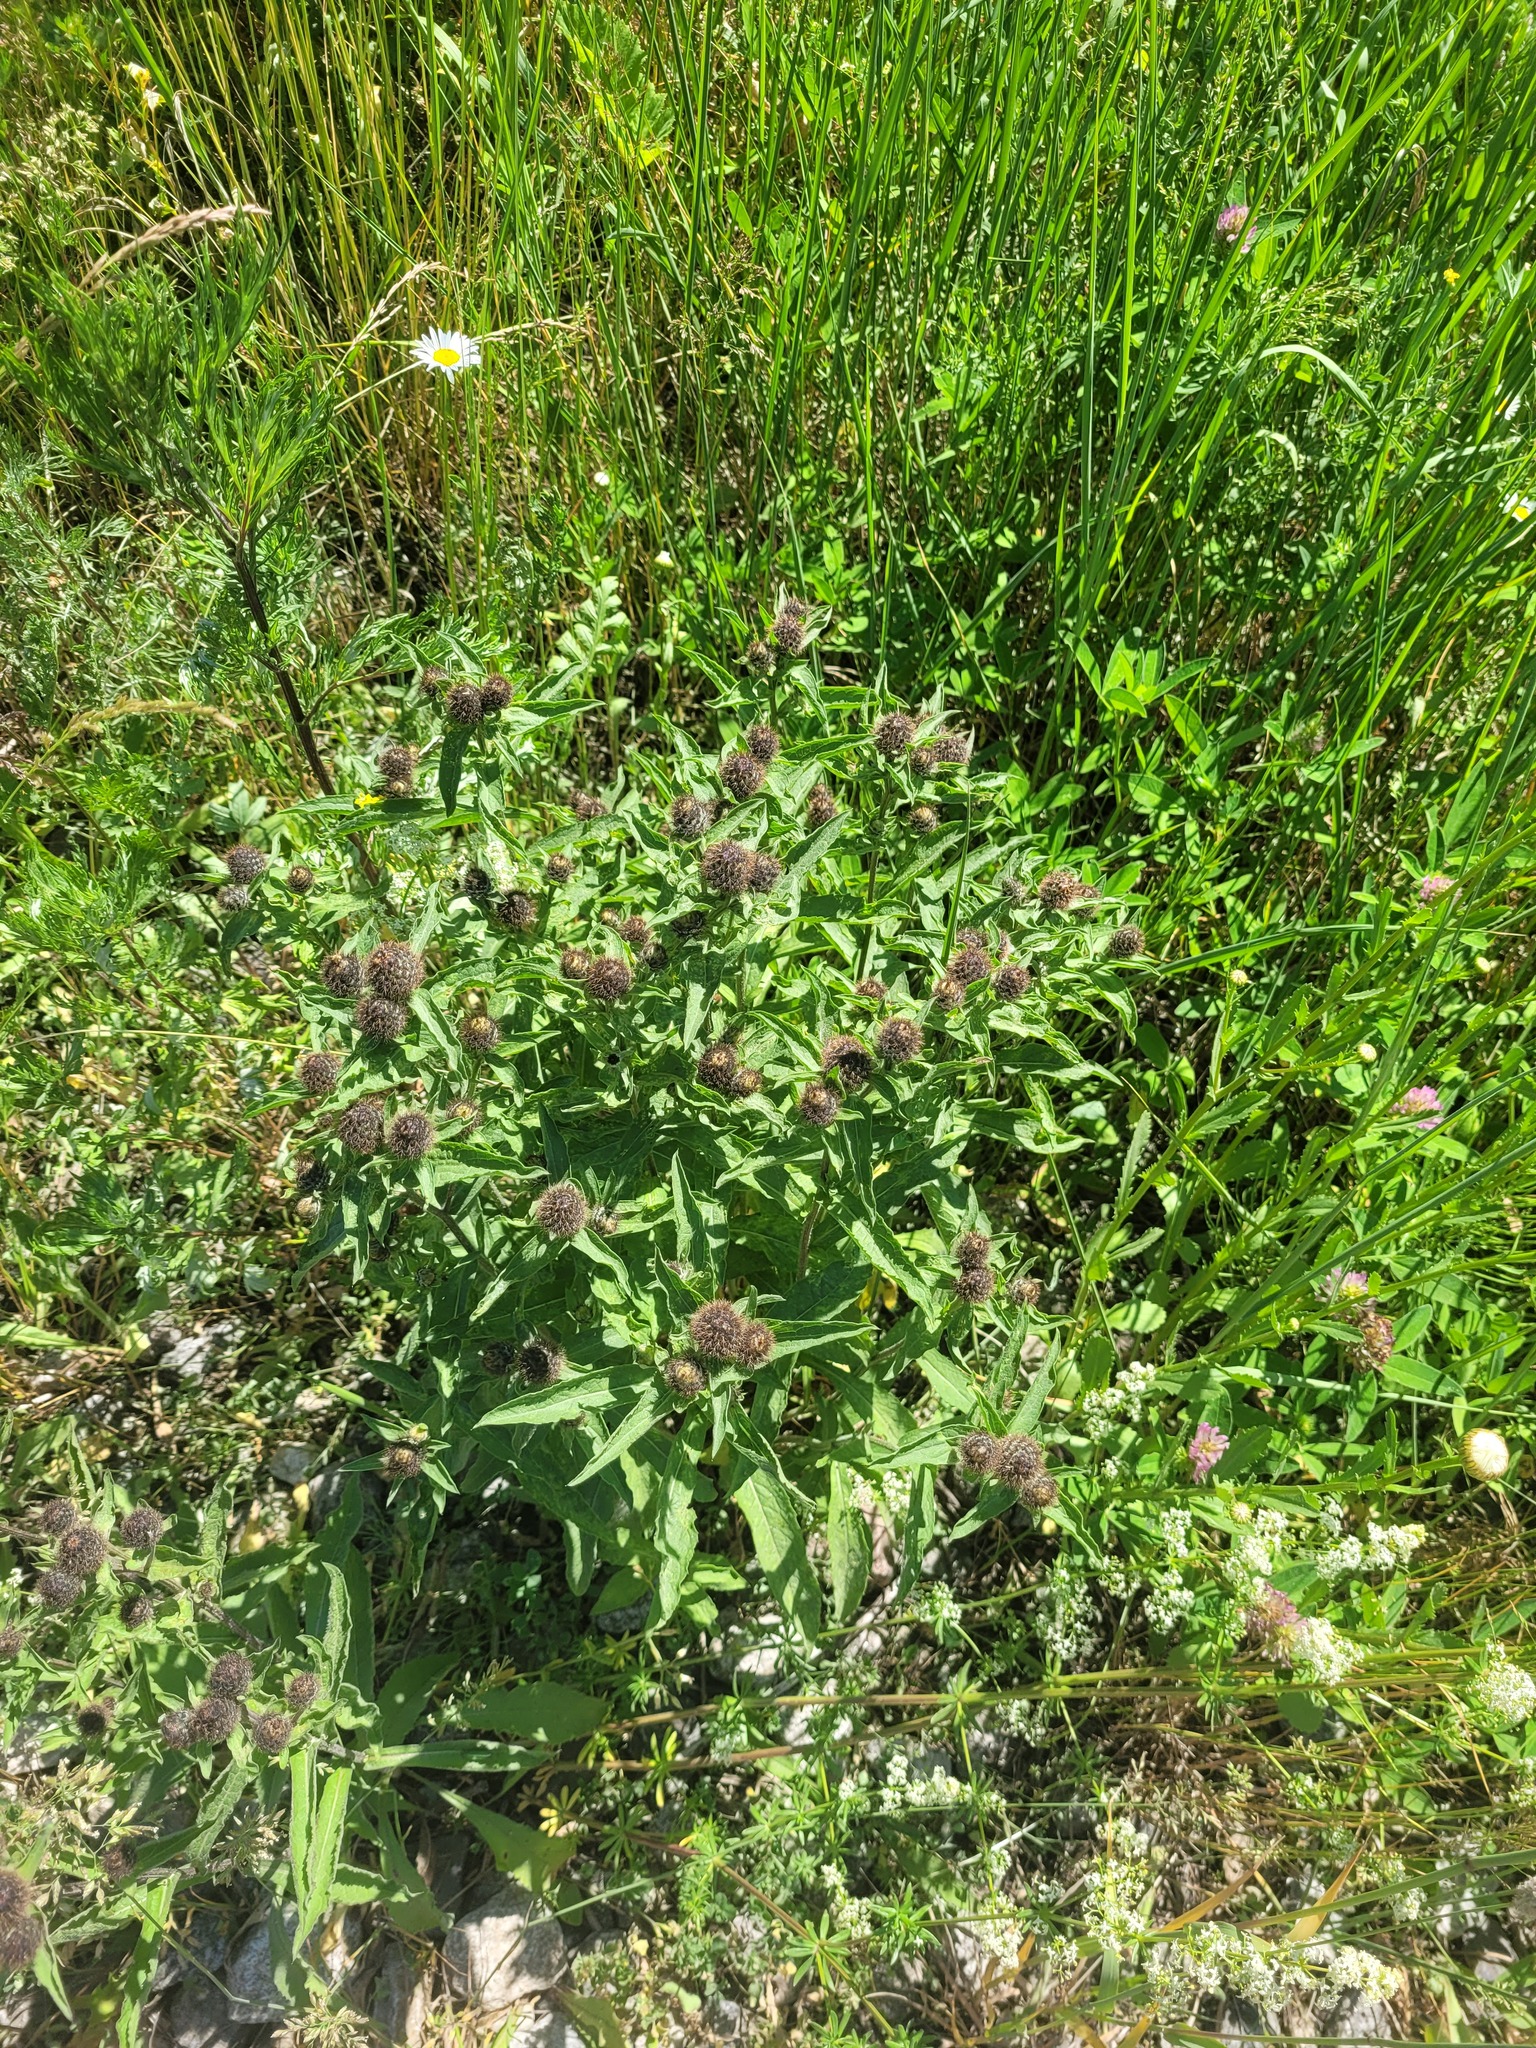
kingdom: Plantae
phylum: Tracheophyta
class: Magnoliopsida
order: Asterales
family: Asteraceae
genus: Centaurea
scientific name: Centaurea pseudophrygia
